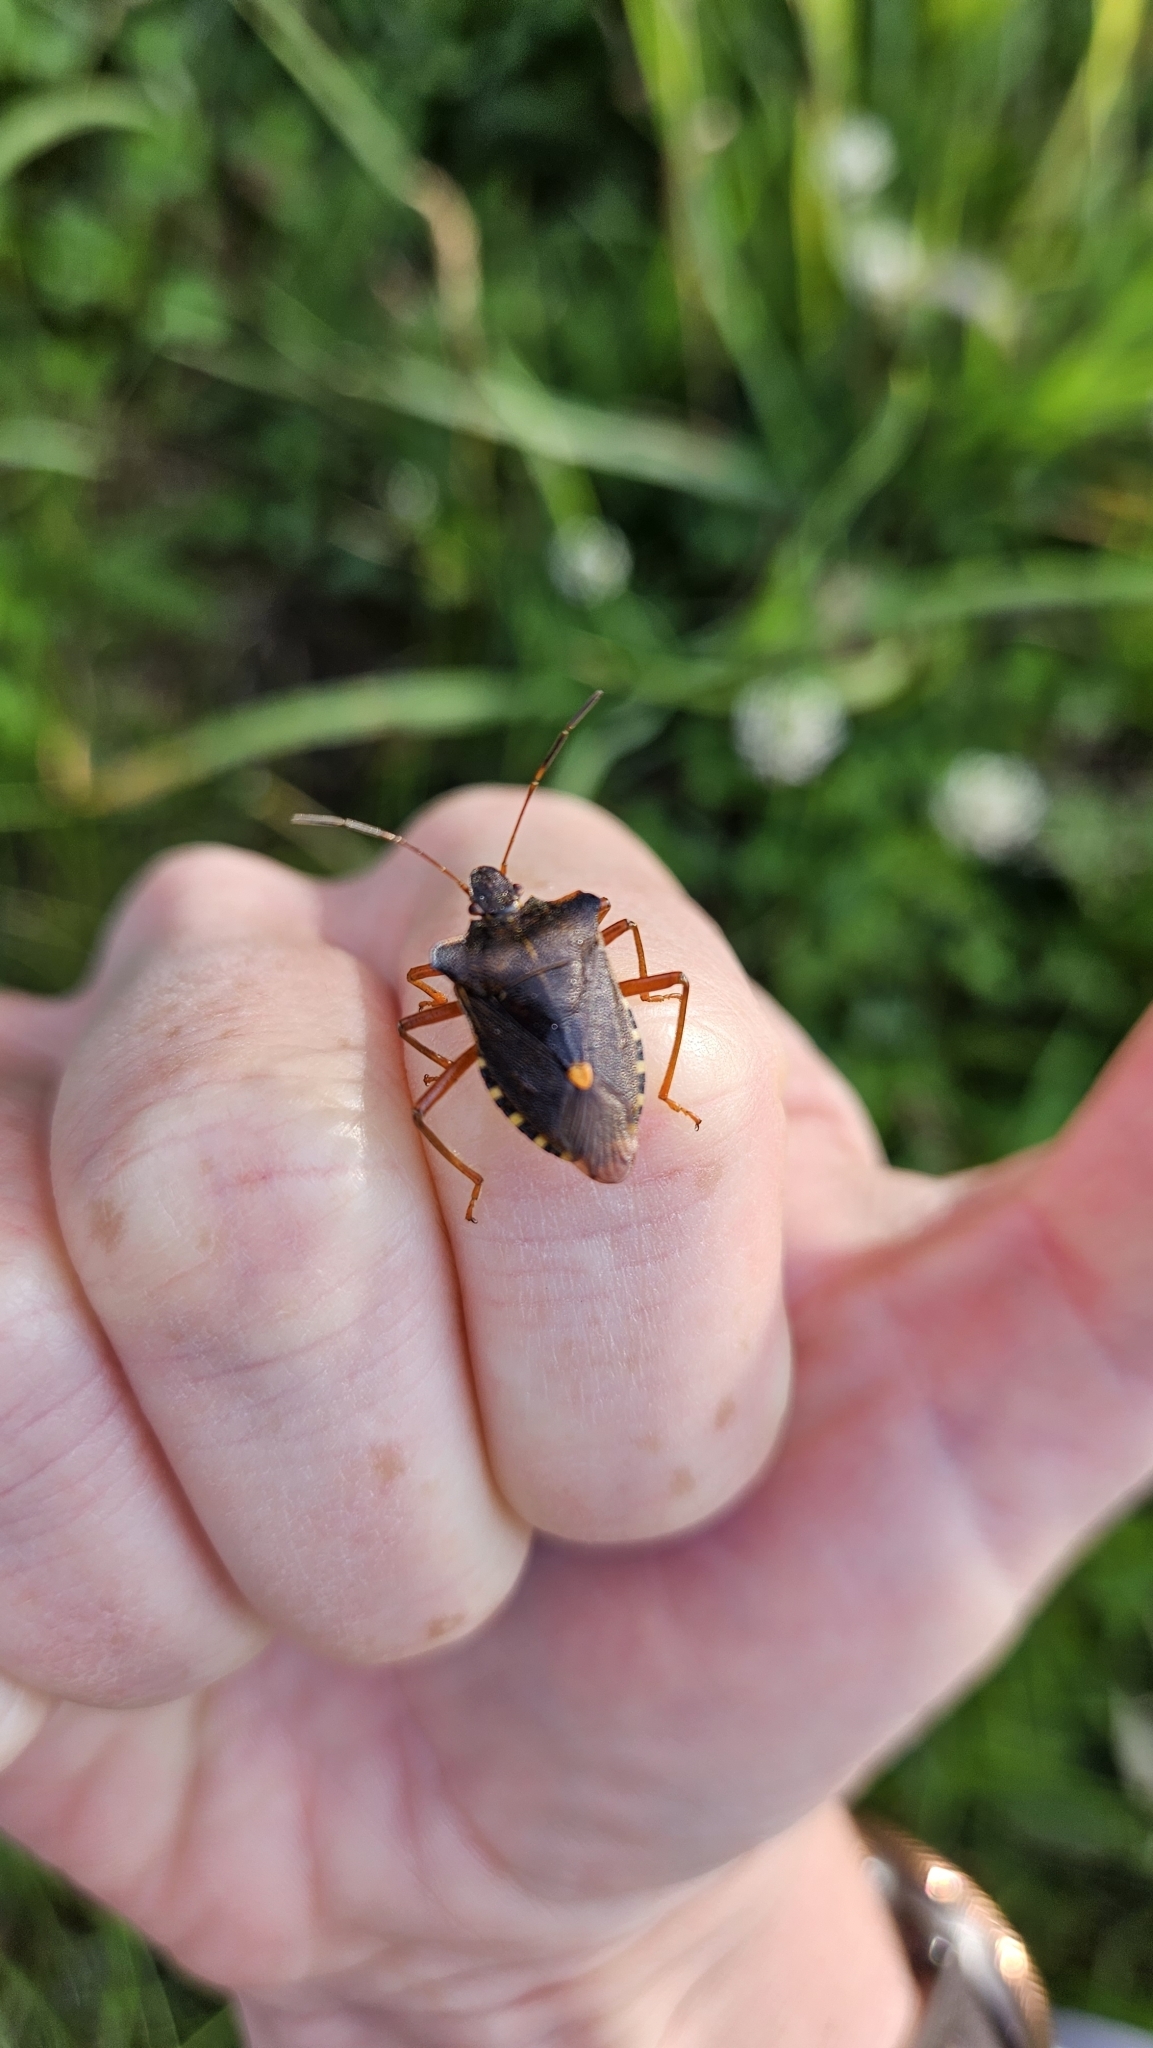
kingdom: Animalia
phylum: Arthropoda
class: Insecta
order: Hemiptera
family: Pentatomidae
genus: Pentatoma
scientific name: Pentatoma rufipes
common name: Forest bug
